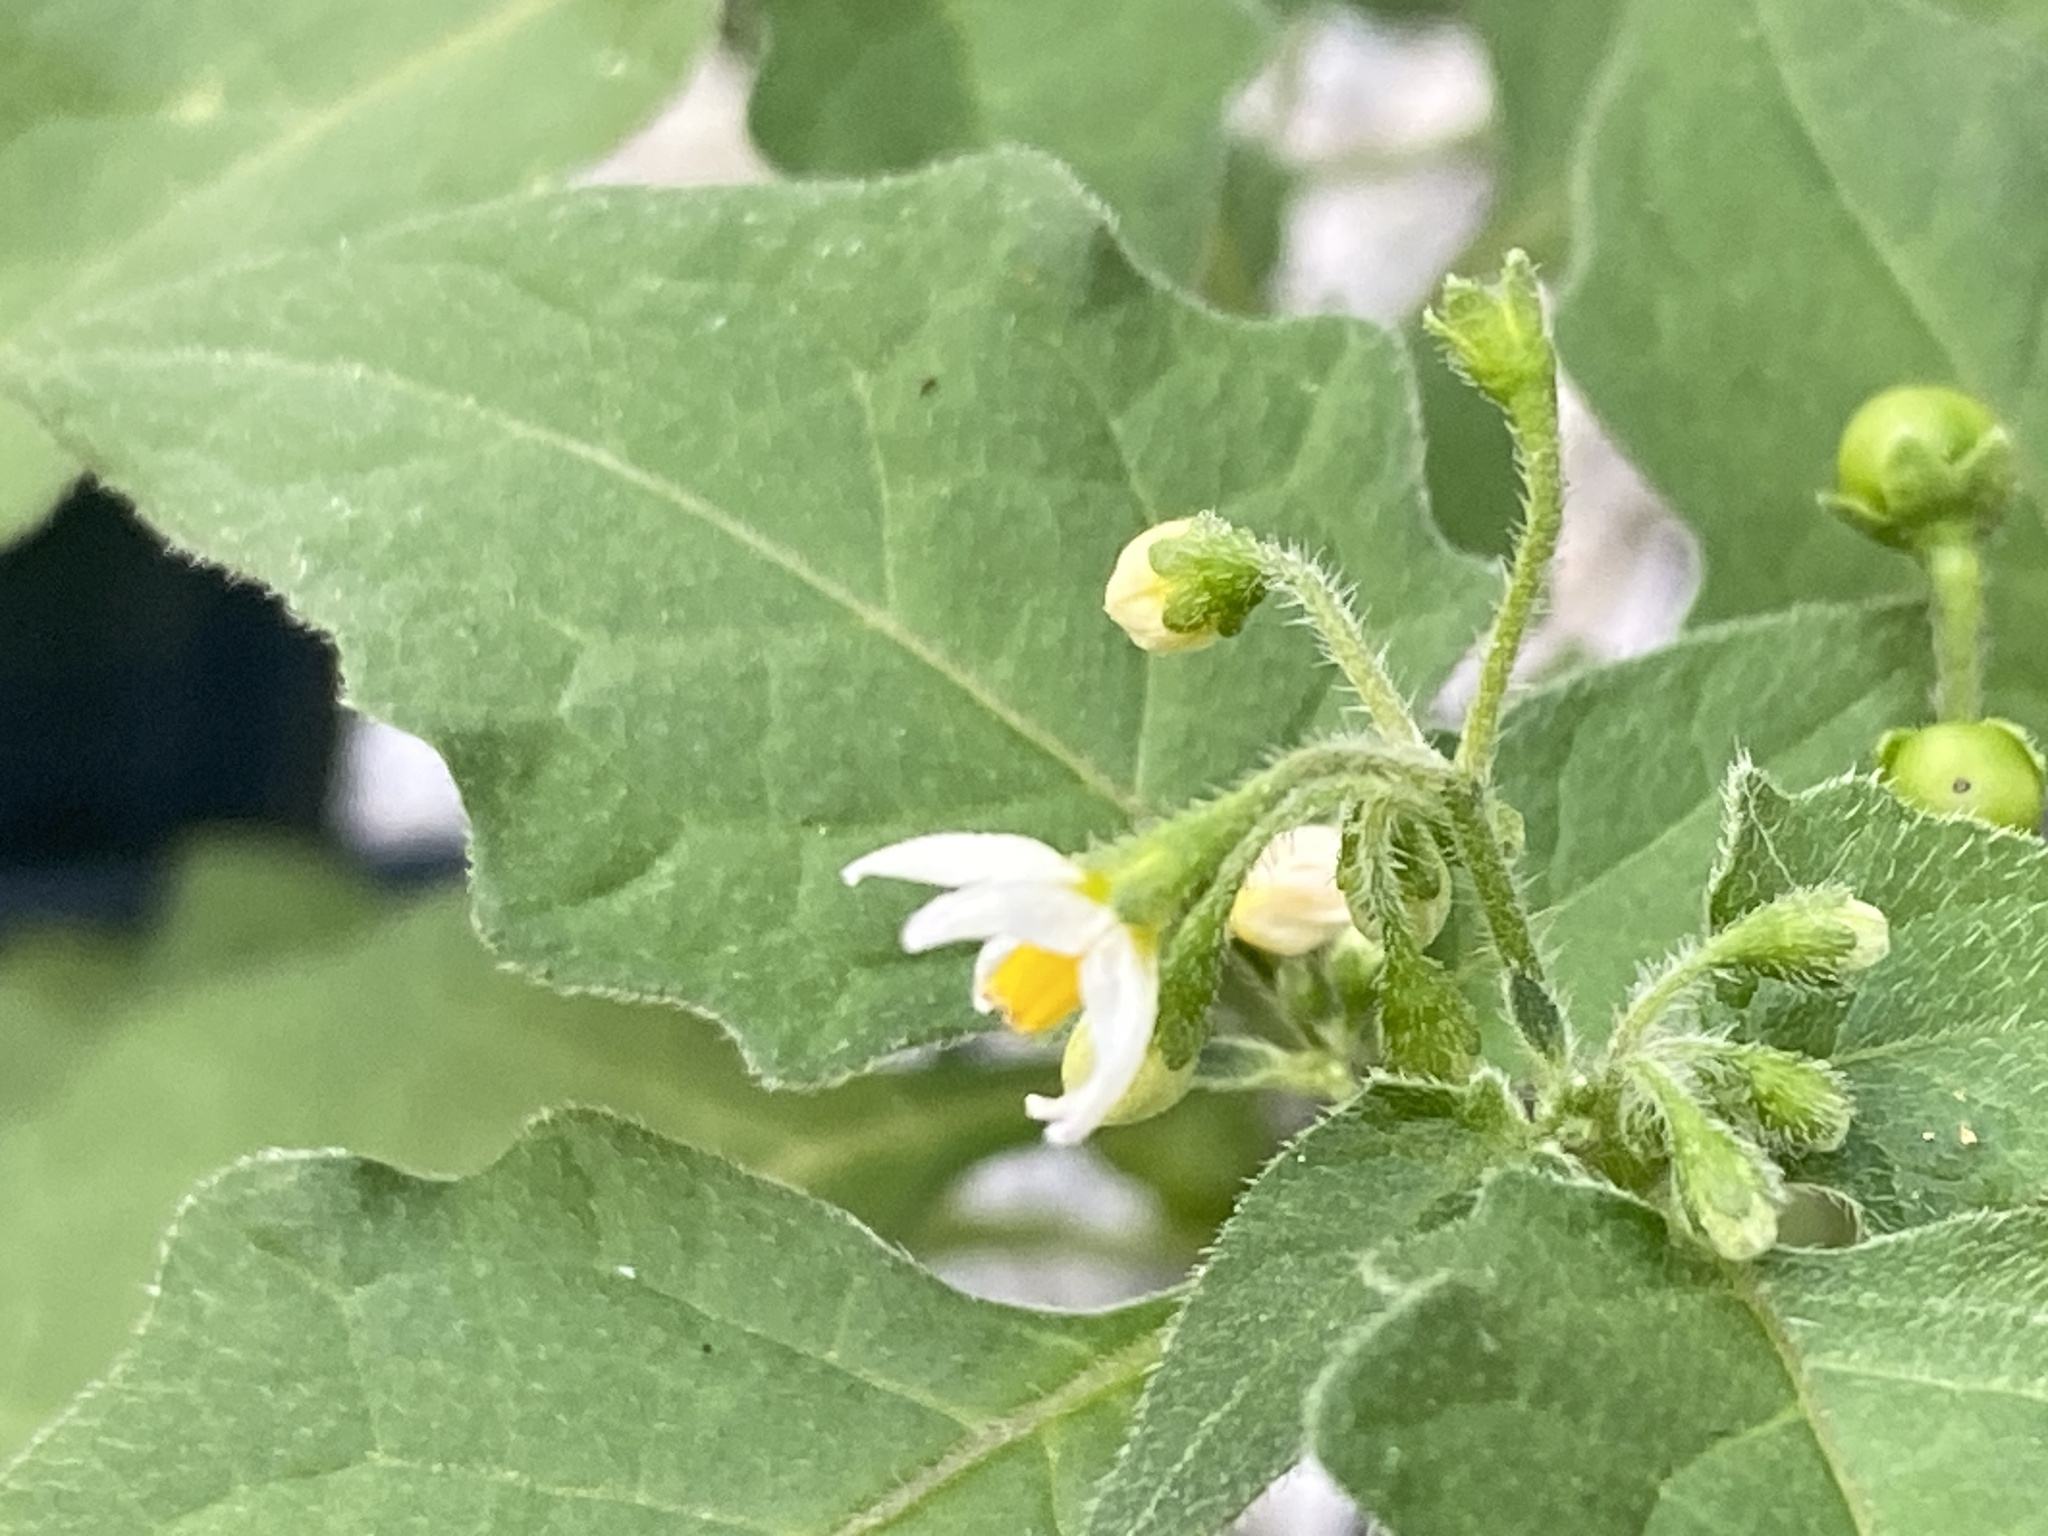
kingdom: Plantae
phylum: Tracheophyta
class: Magnoliopsida
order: Solanales
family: Solanaceae
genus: Solanum
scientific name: Solanum nigrum
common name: Black nightshade
